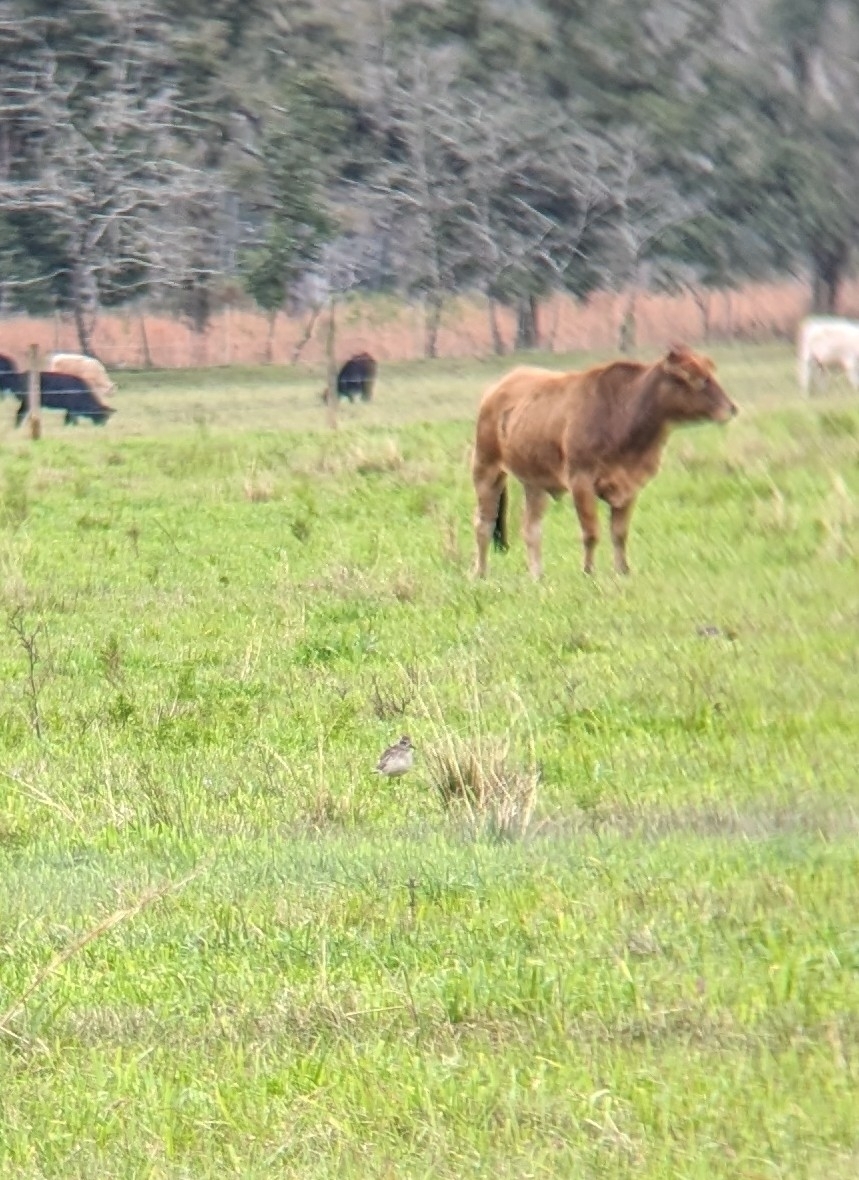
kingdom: Animalia
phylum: Chordata
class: Aves
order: Charadriiformes
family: Charadriidae
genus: Pluvialis
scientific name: Pluvialis squatarola
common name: Grey plover
